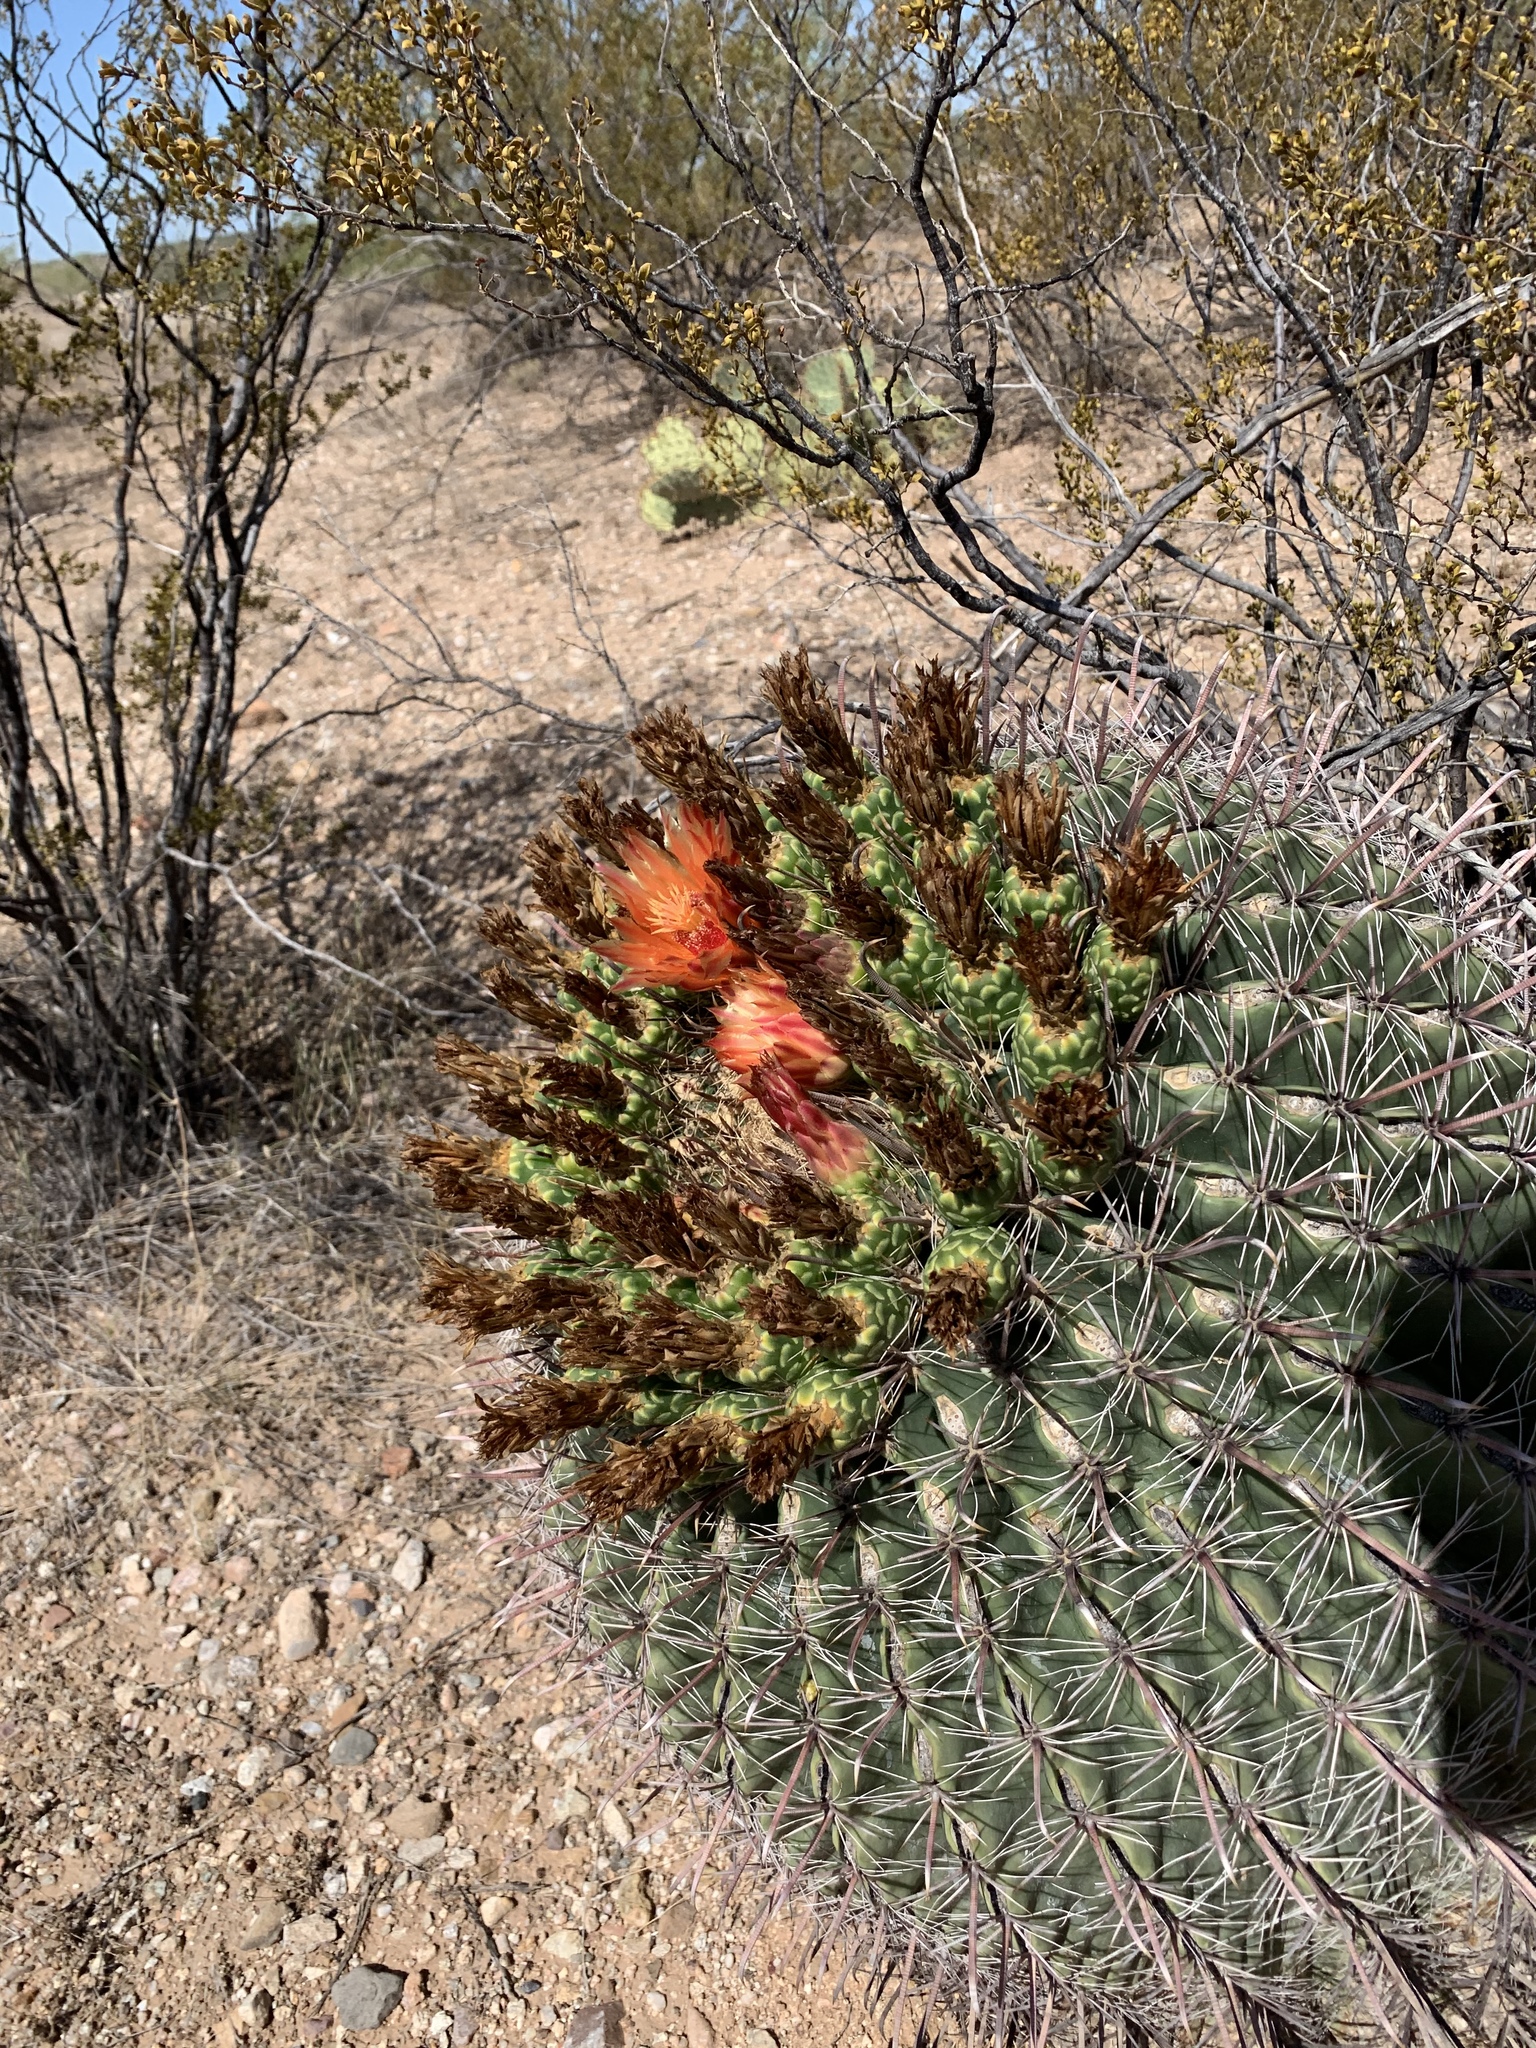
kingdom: Plantae
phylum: Tracheophyta
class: Magnoliopsida
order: Caryophyllales
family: Cactaceae
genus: Ferocactus
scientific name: Ferocactus wislizeni
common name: Candy barrel cactus
